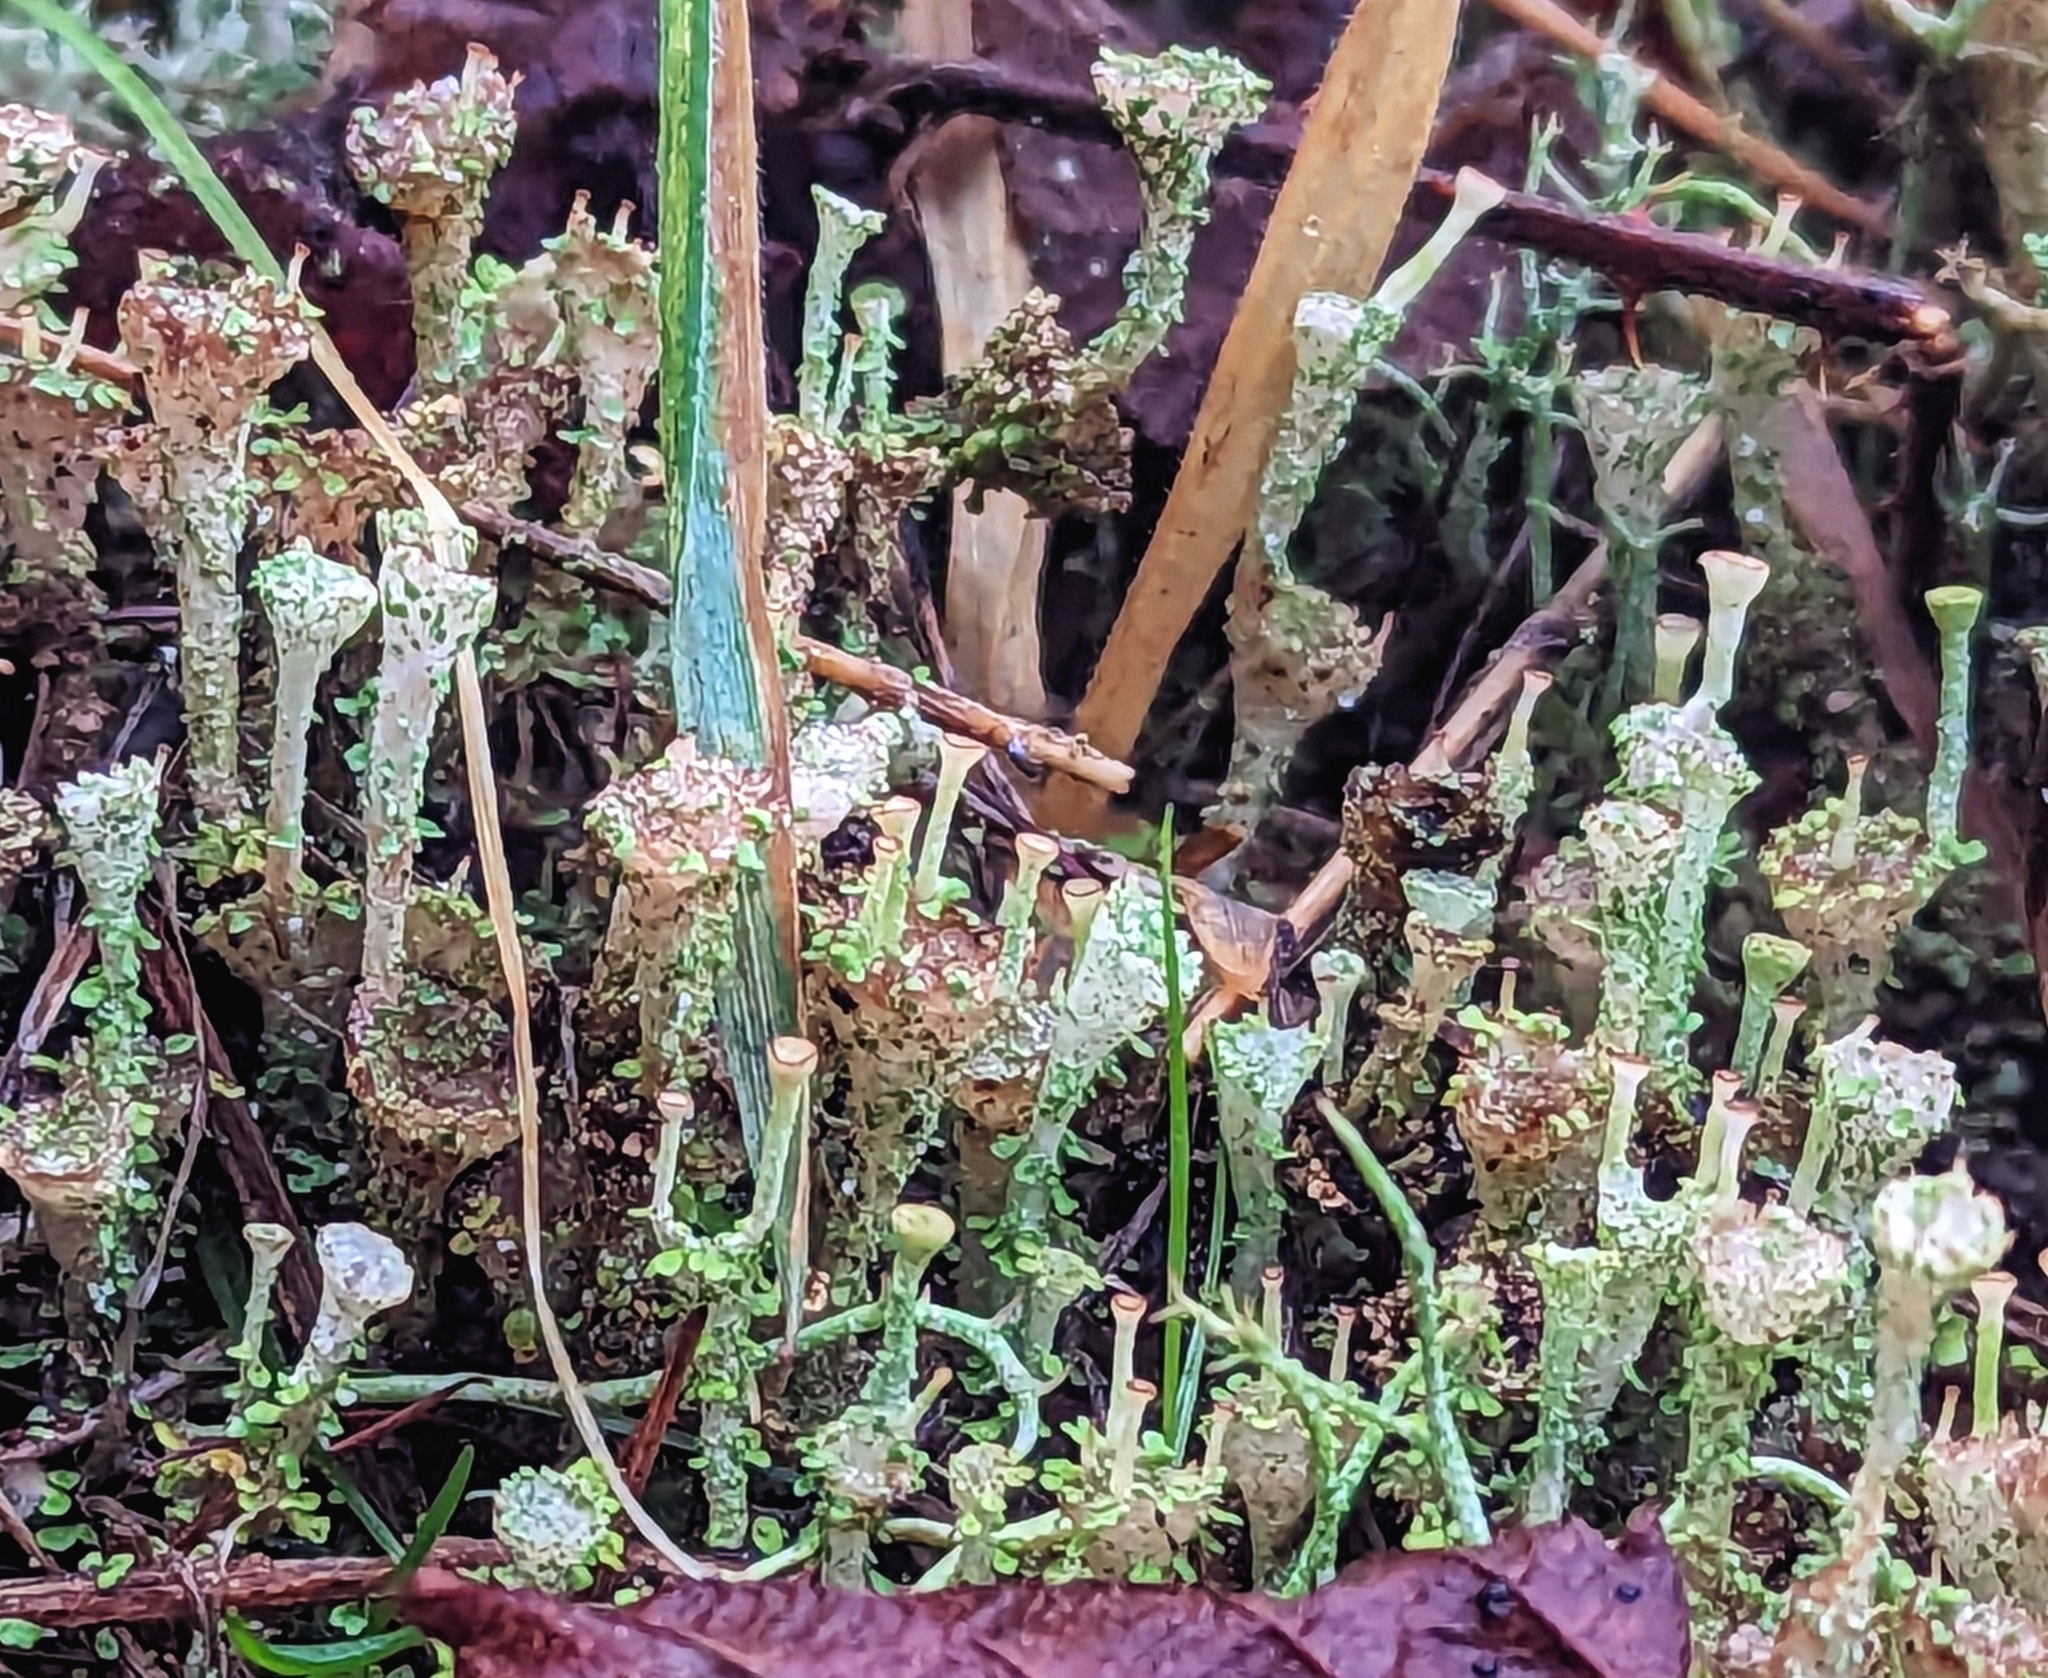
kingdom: Fungi
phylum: Ascomycota
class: Lecanoromycetes
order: Lecanorales
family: Cladoniaceae
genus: Cladonia
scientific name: Cladonia pyxidata
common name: Pebbled pixie cup
